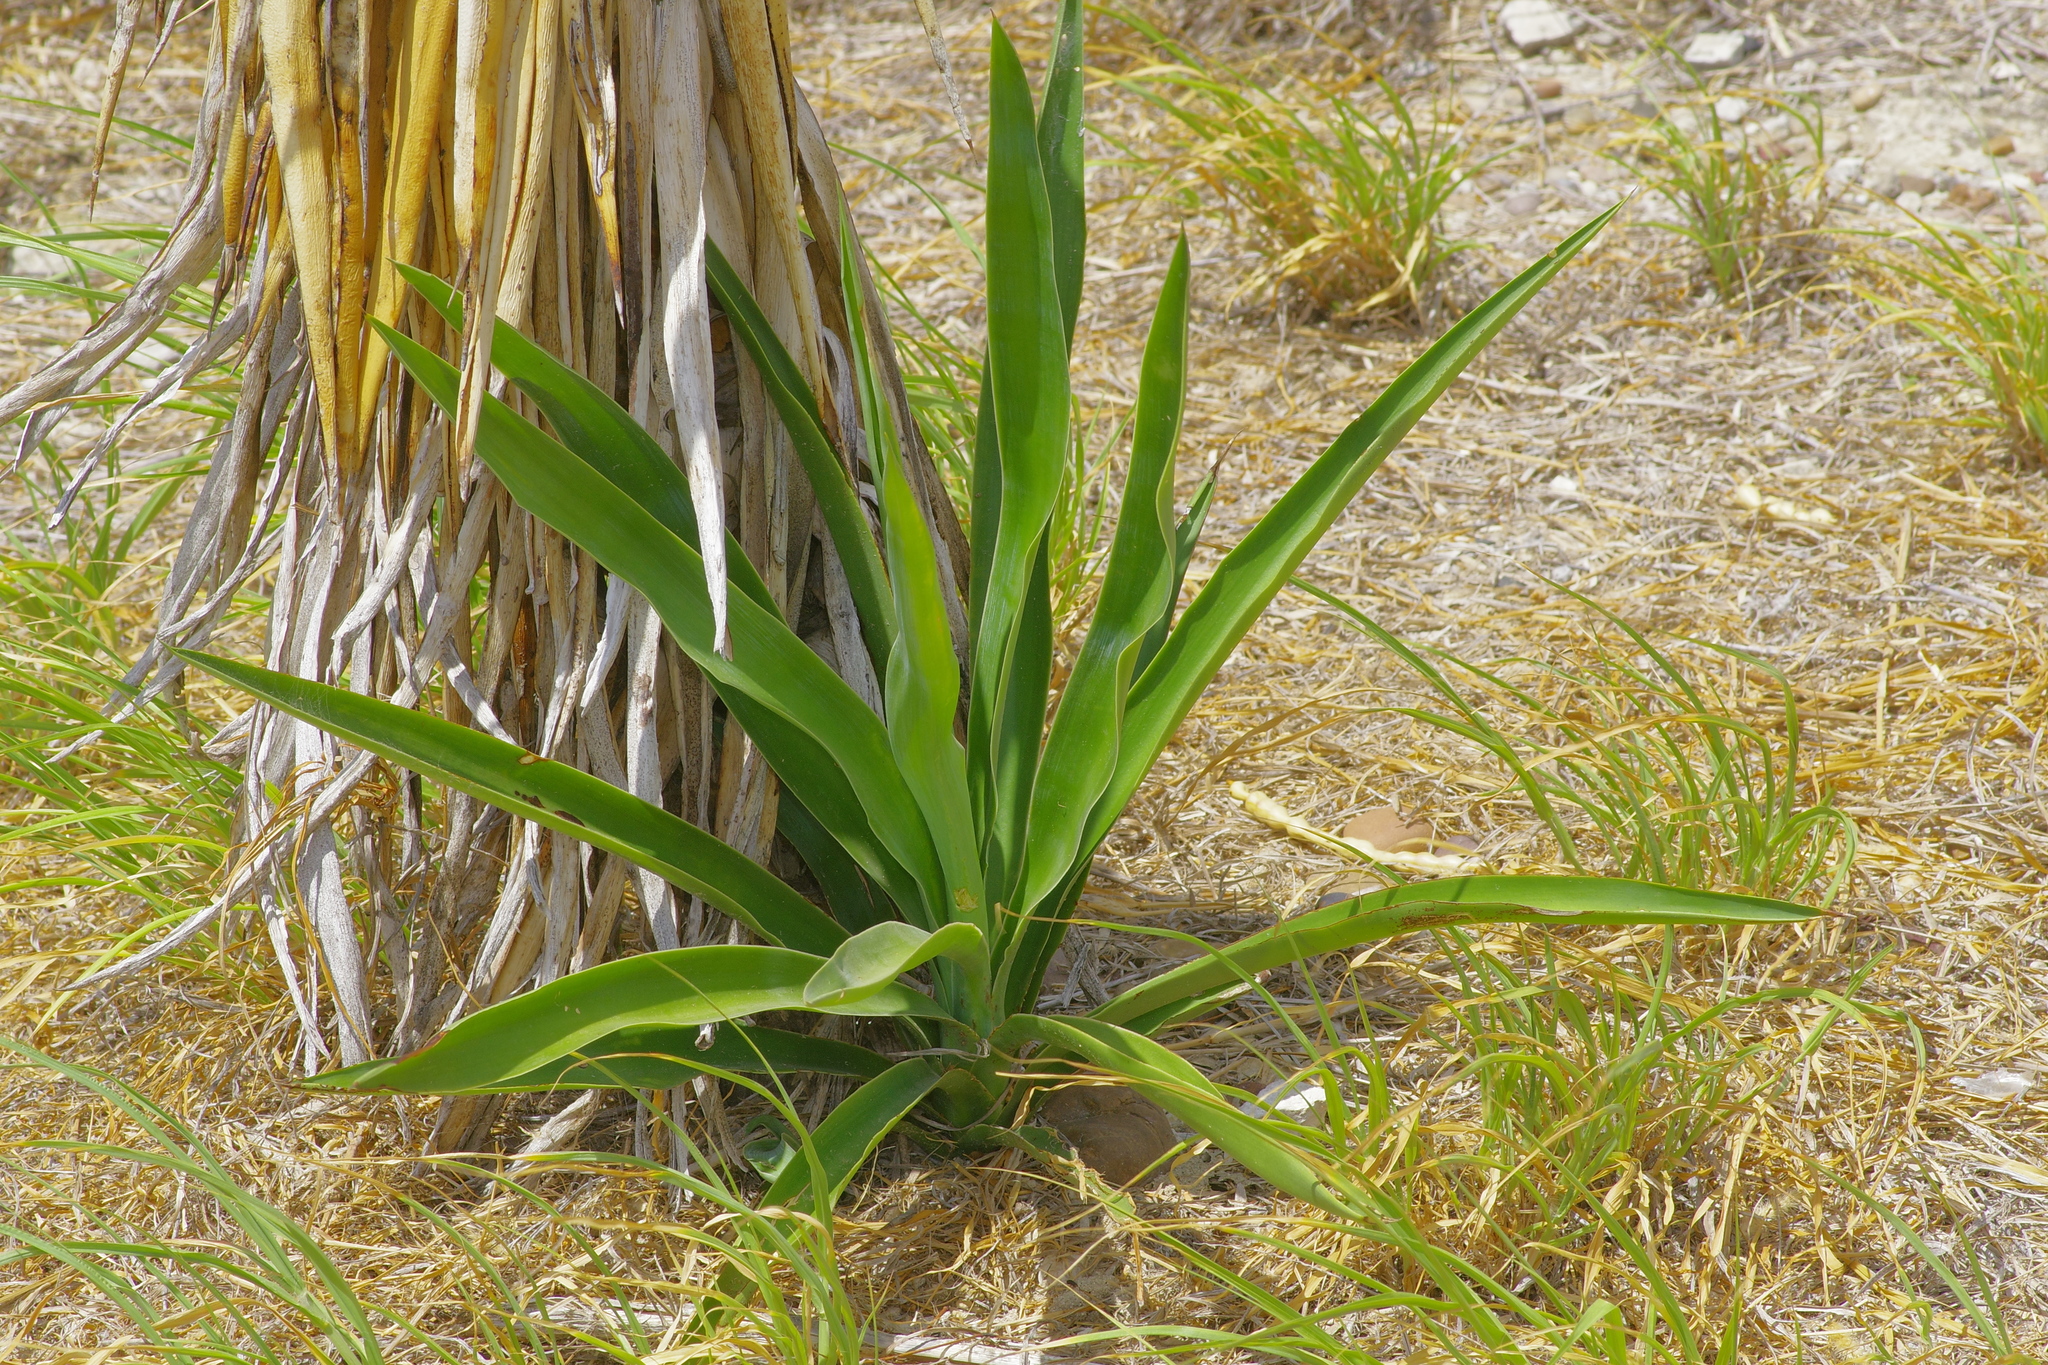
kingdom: Plantae
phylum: Tracheophyta
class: Liliopsida
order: Asparagales
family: Asparagaceae
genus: Yucca
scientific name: Yucca treculiana
